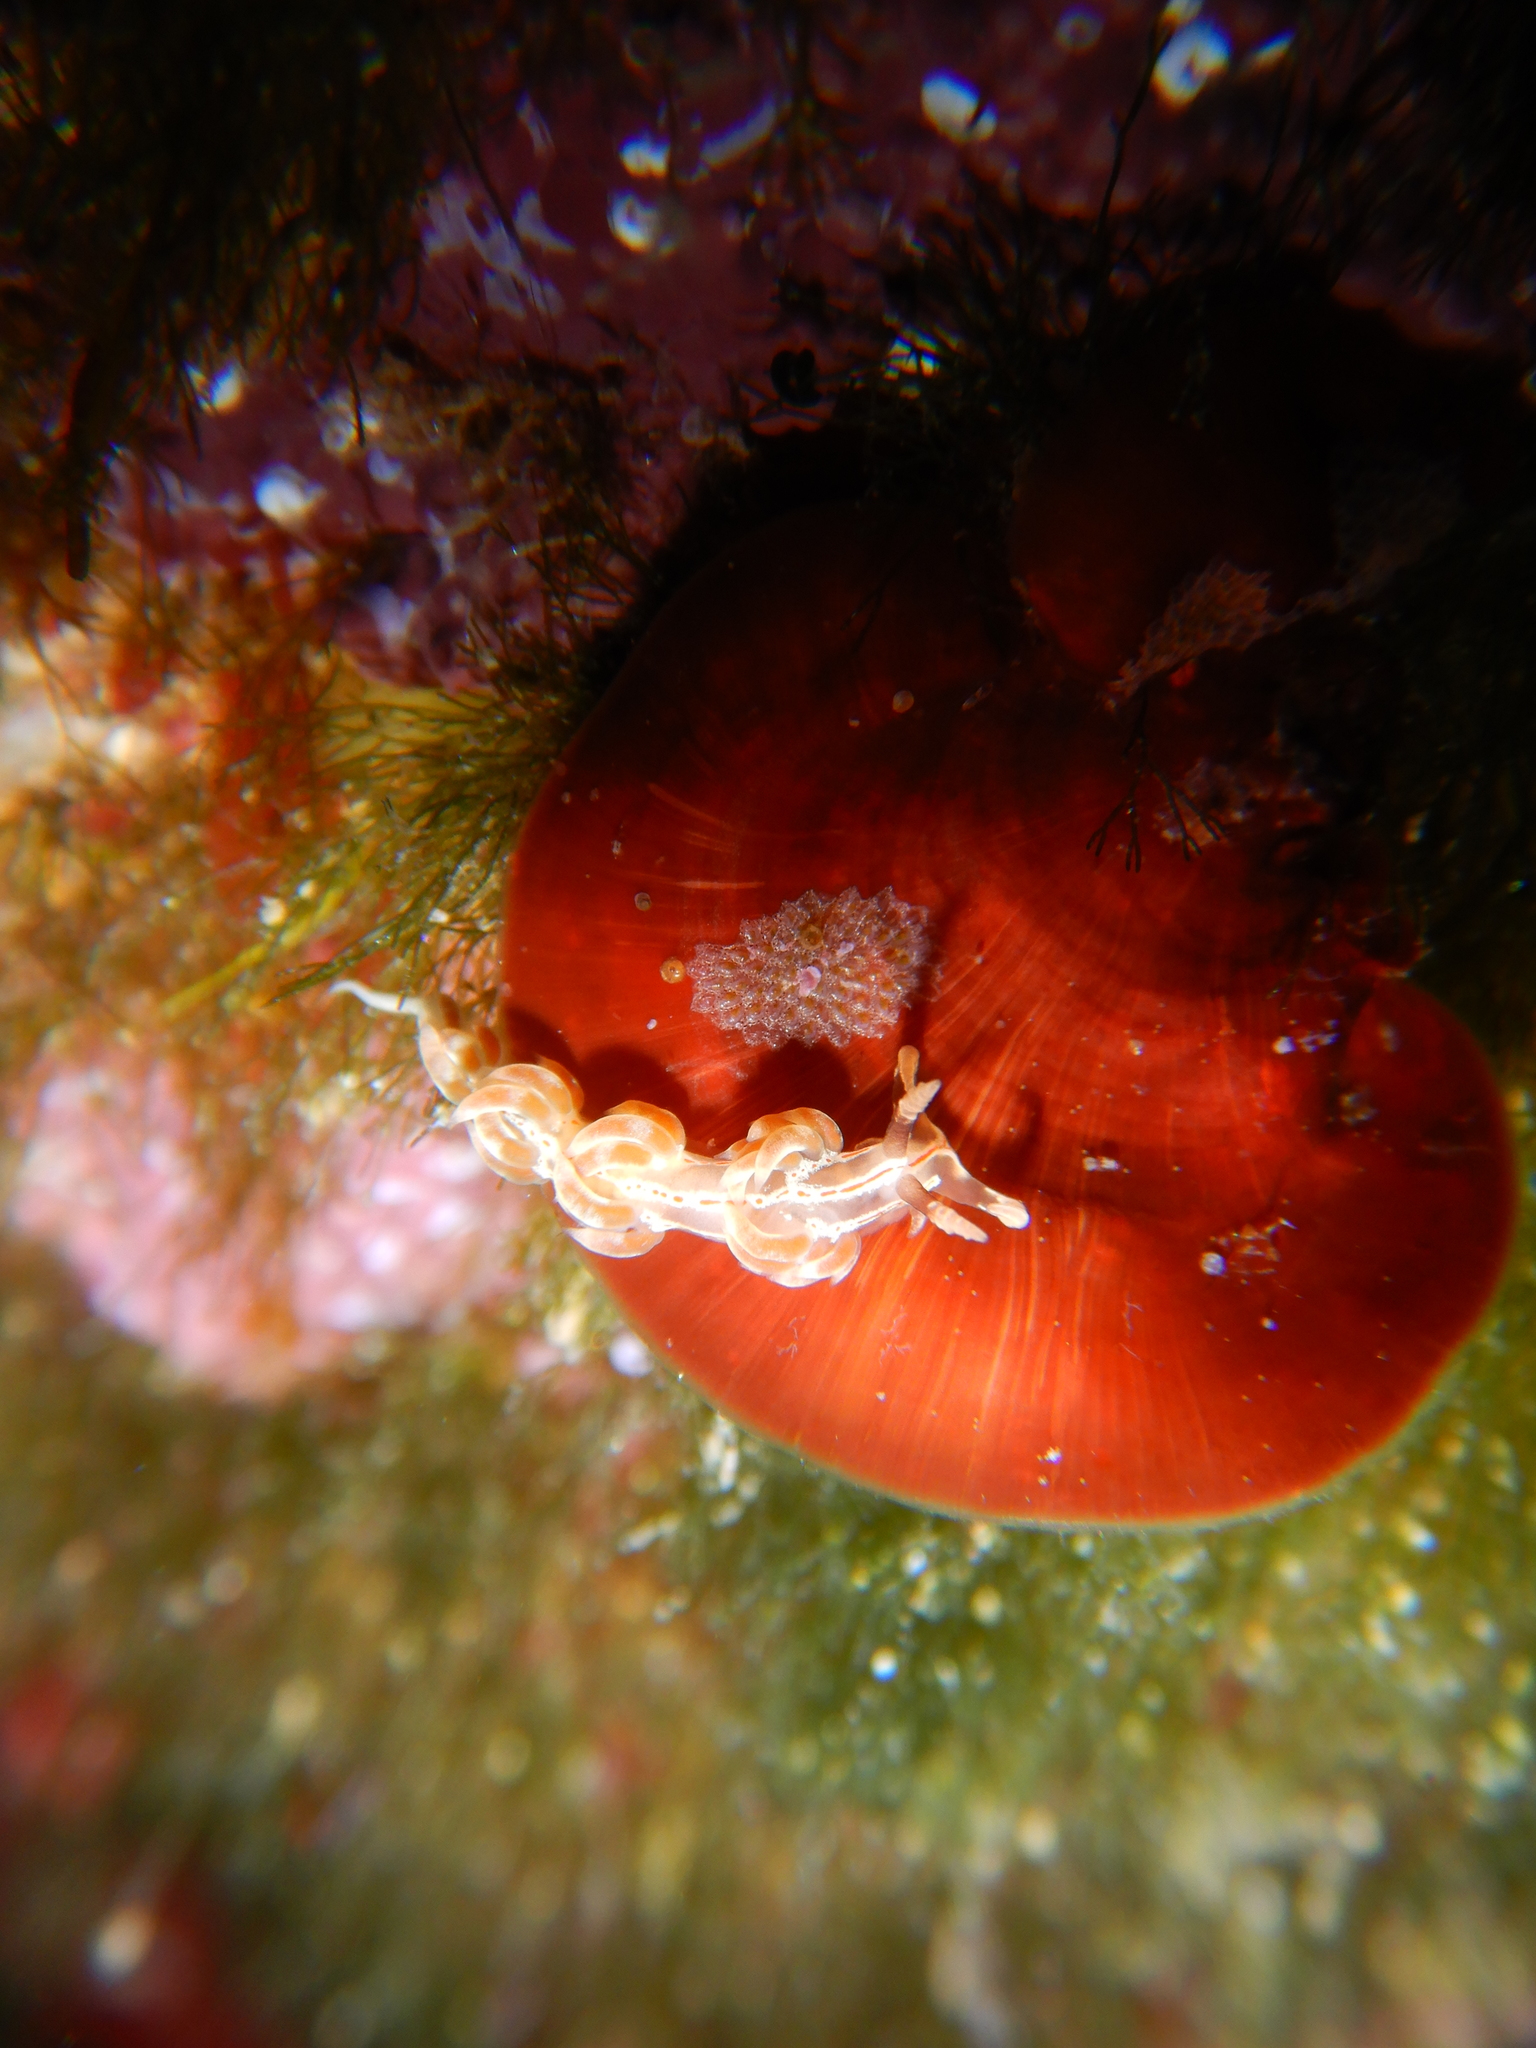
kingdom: Animalia
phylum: Mollusca
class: Gastropoda
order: Nudibranchia
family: Facelinidae
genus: Facelina
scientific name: Facelina rubrovittata
